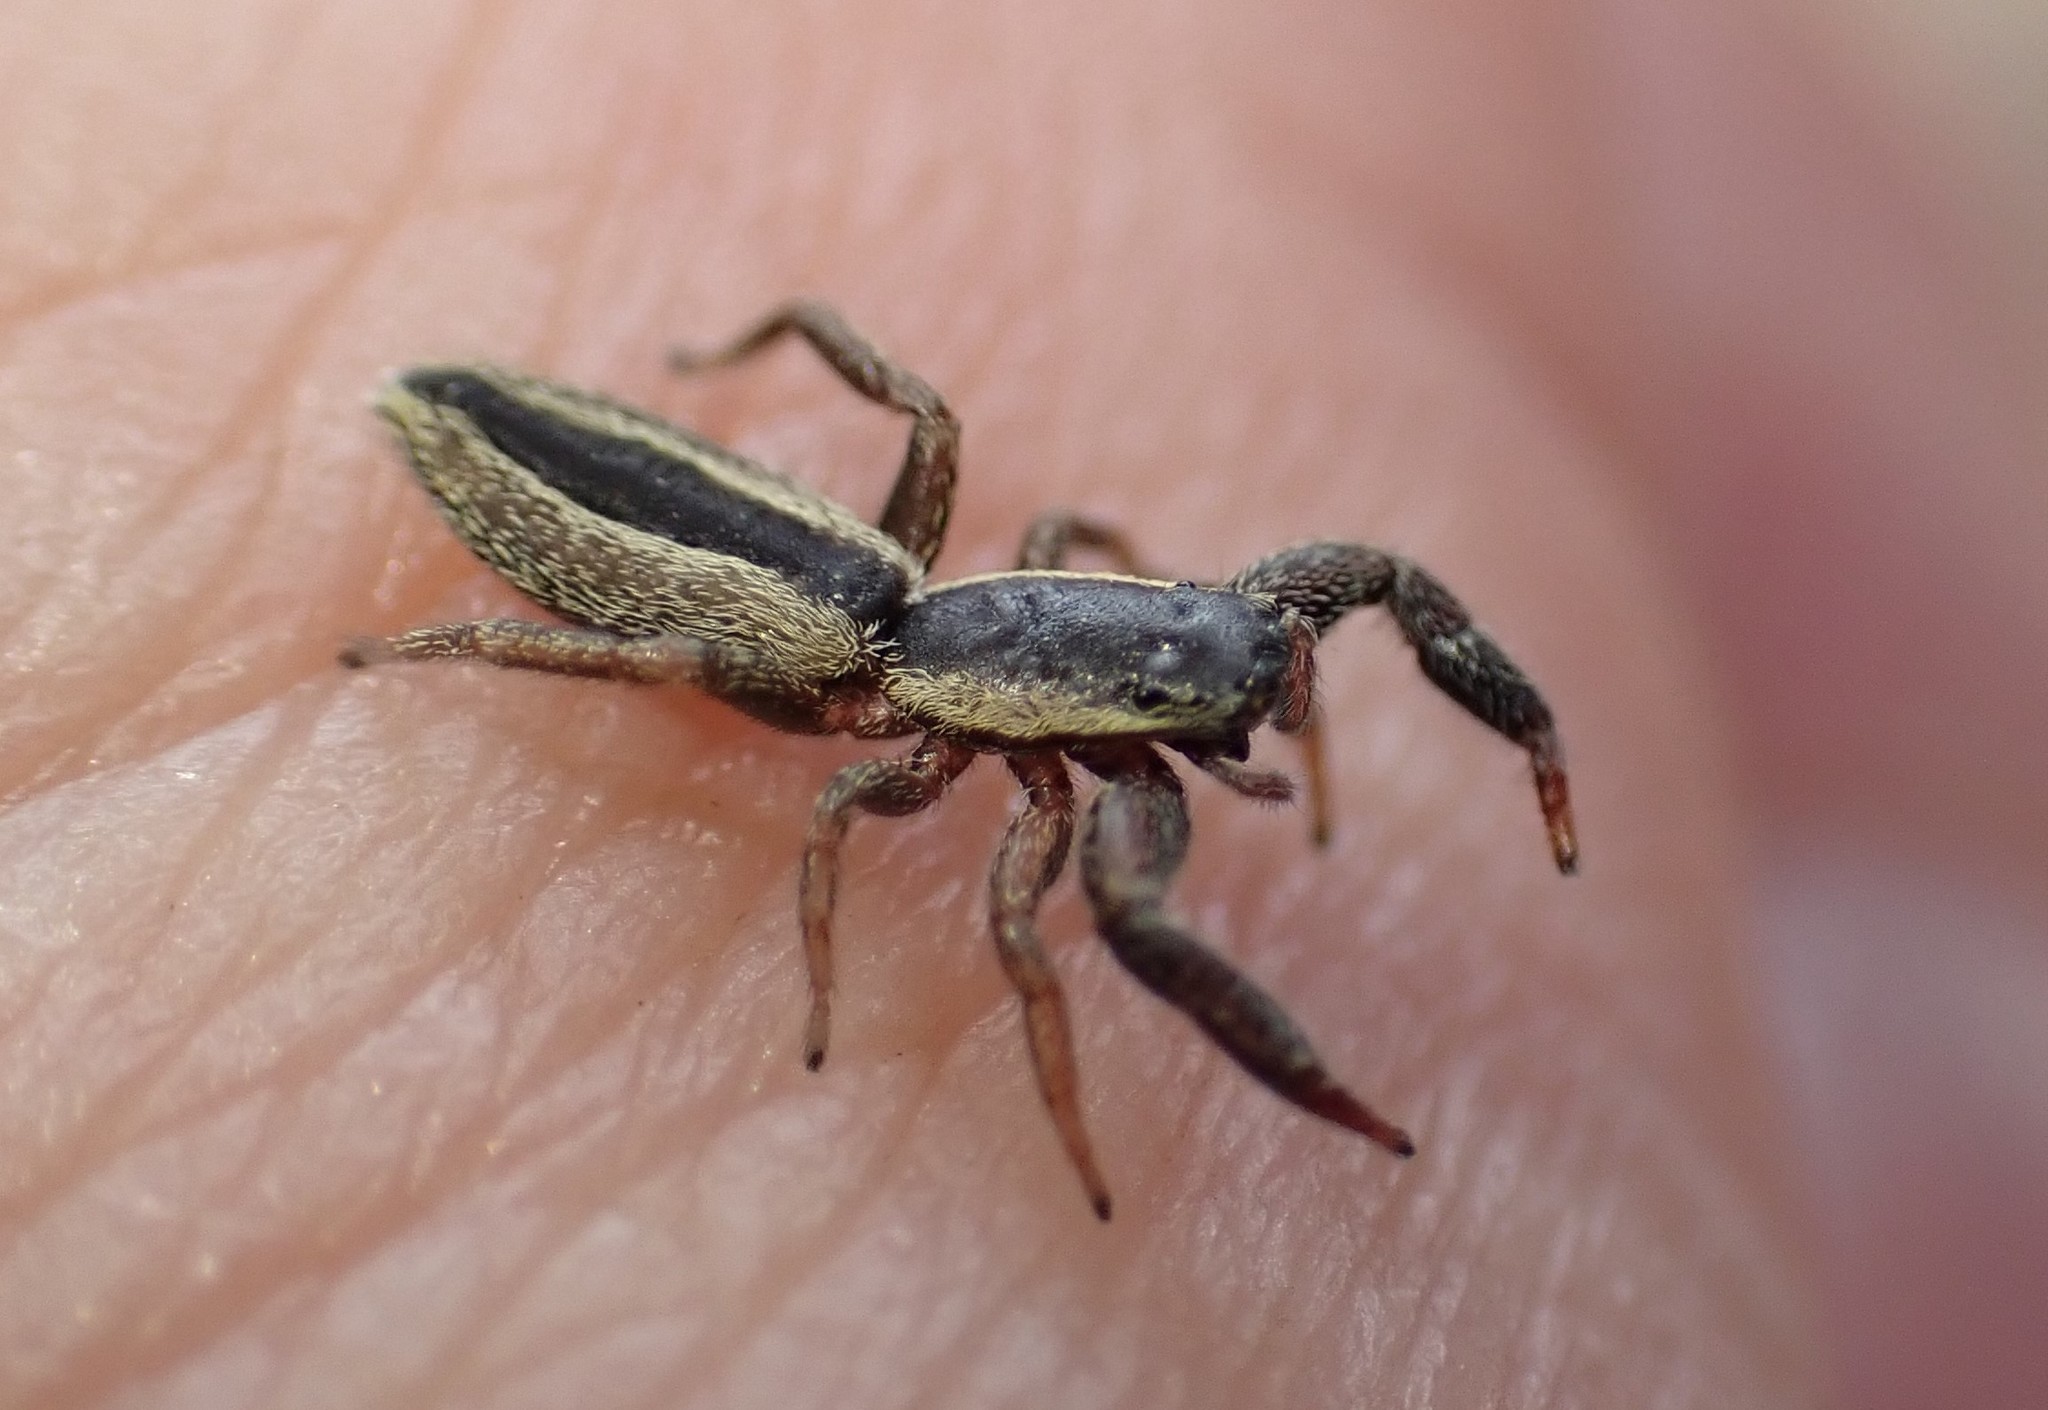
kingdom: Animalia
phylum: Arthropoda
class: Arachnida
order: Araneae
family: Salticidae
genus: Holoplatys
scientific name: Holoplatys tasmanensis
